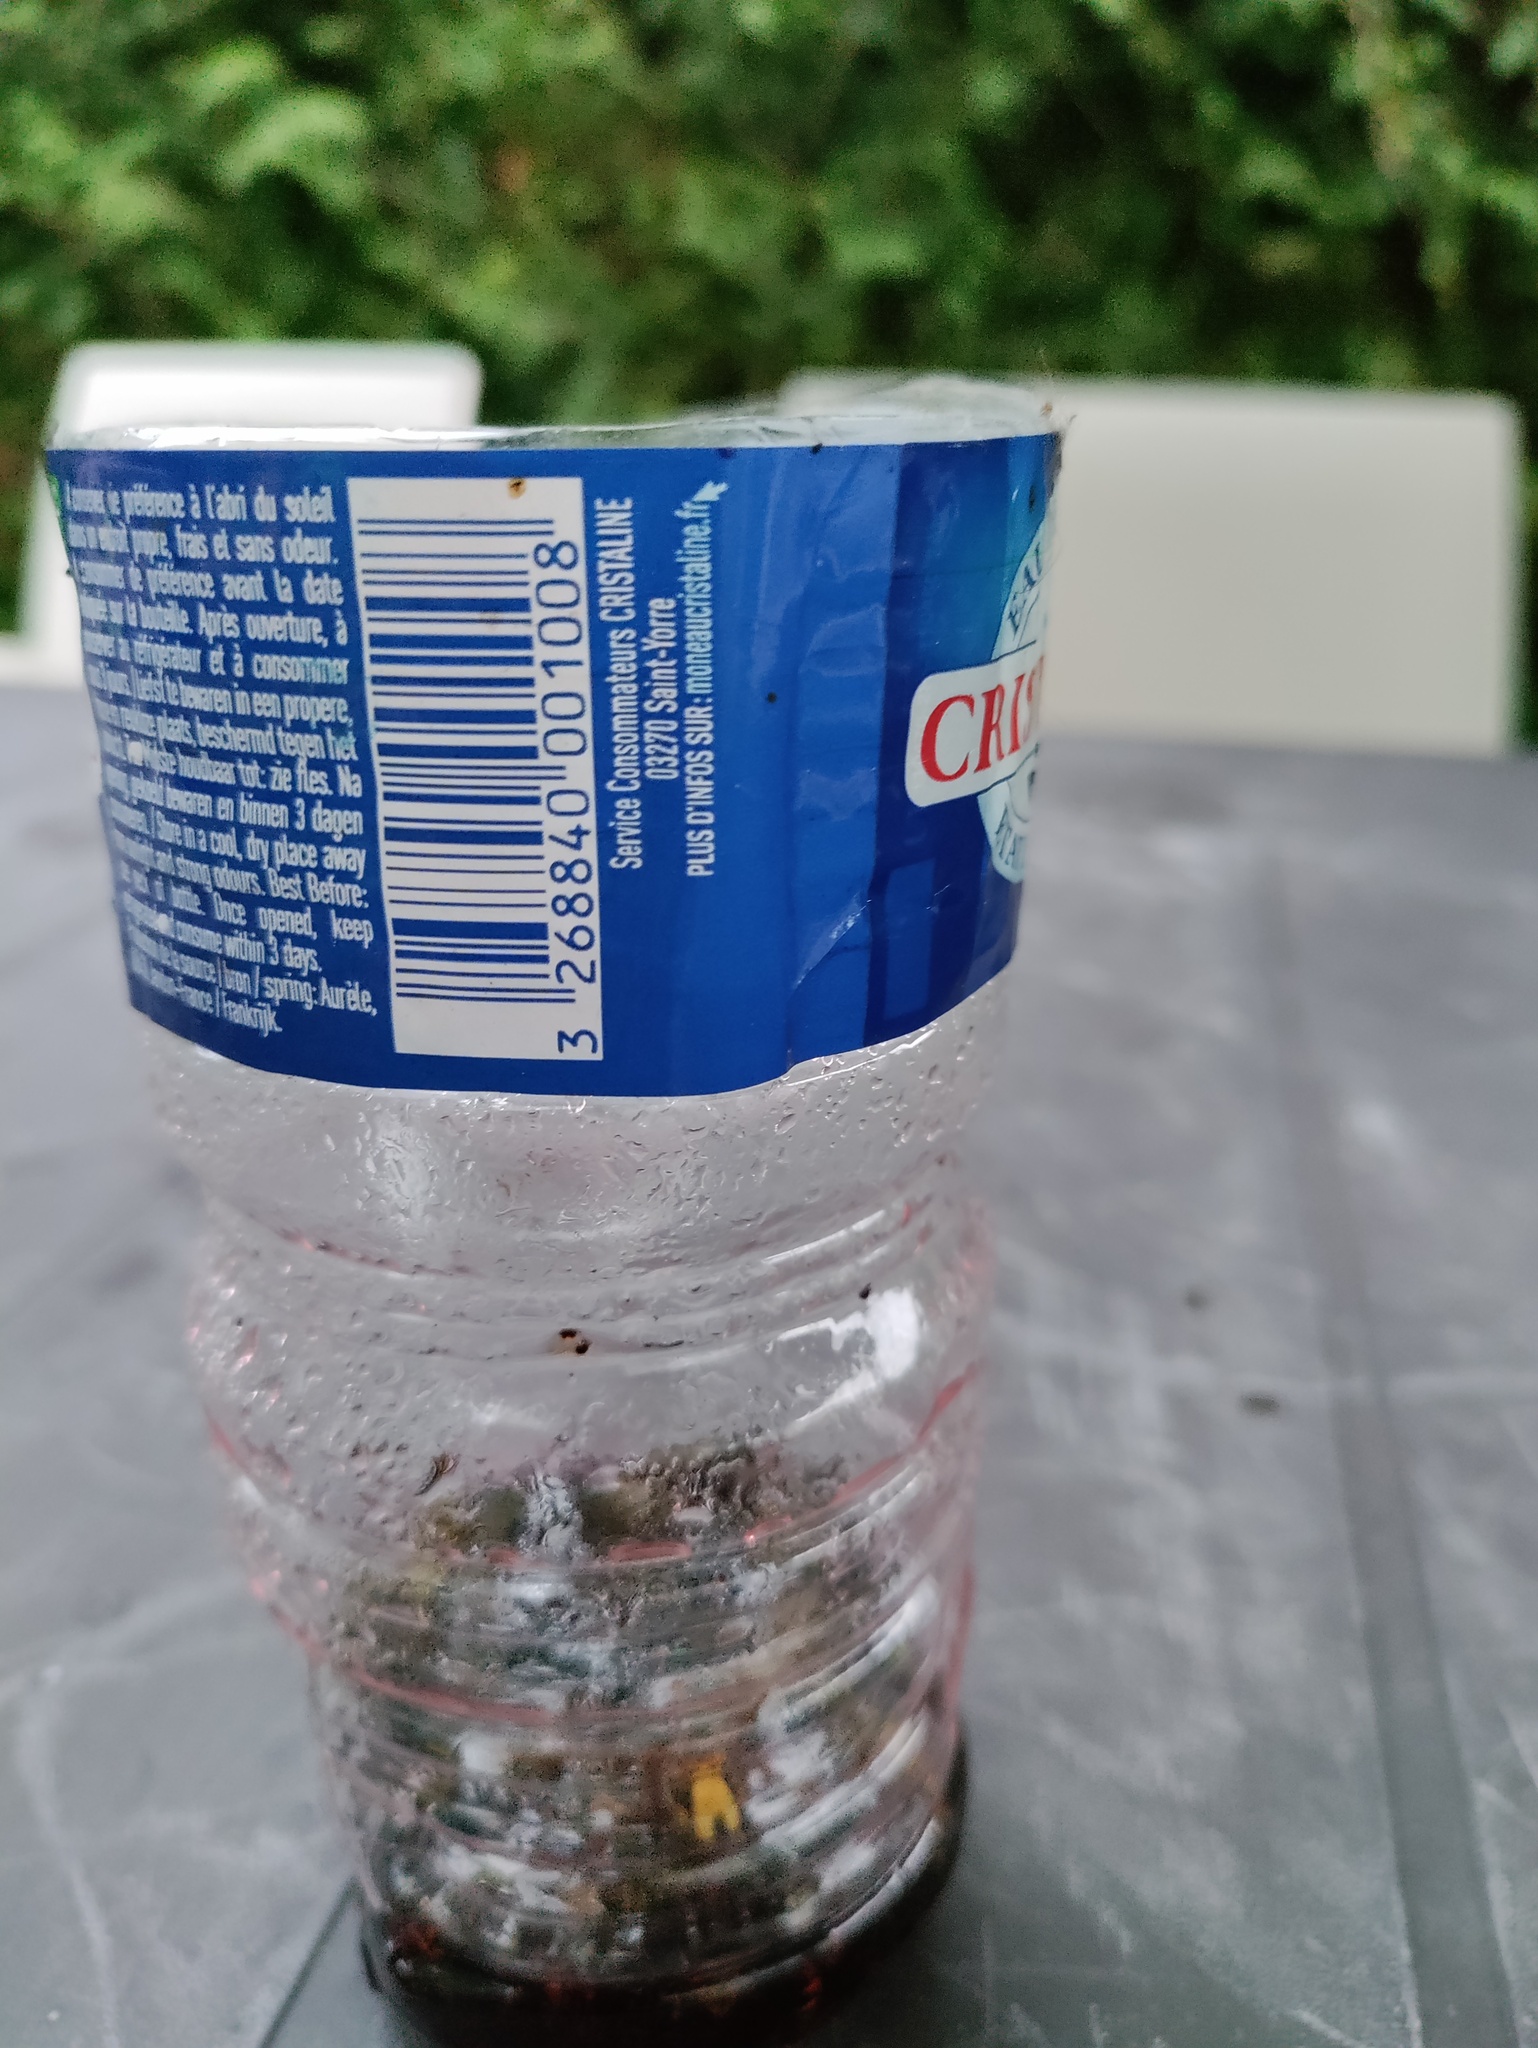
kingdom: Animalia
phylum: Arthropoda
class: Insecta
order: Hymenoptera
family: Vespidae
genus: Vespa
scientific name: Vespa crabro
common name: Hornet
